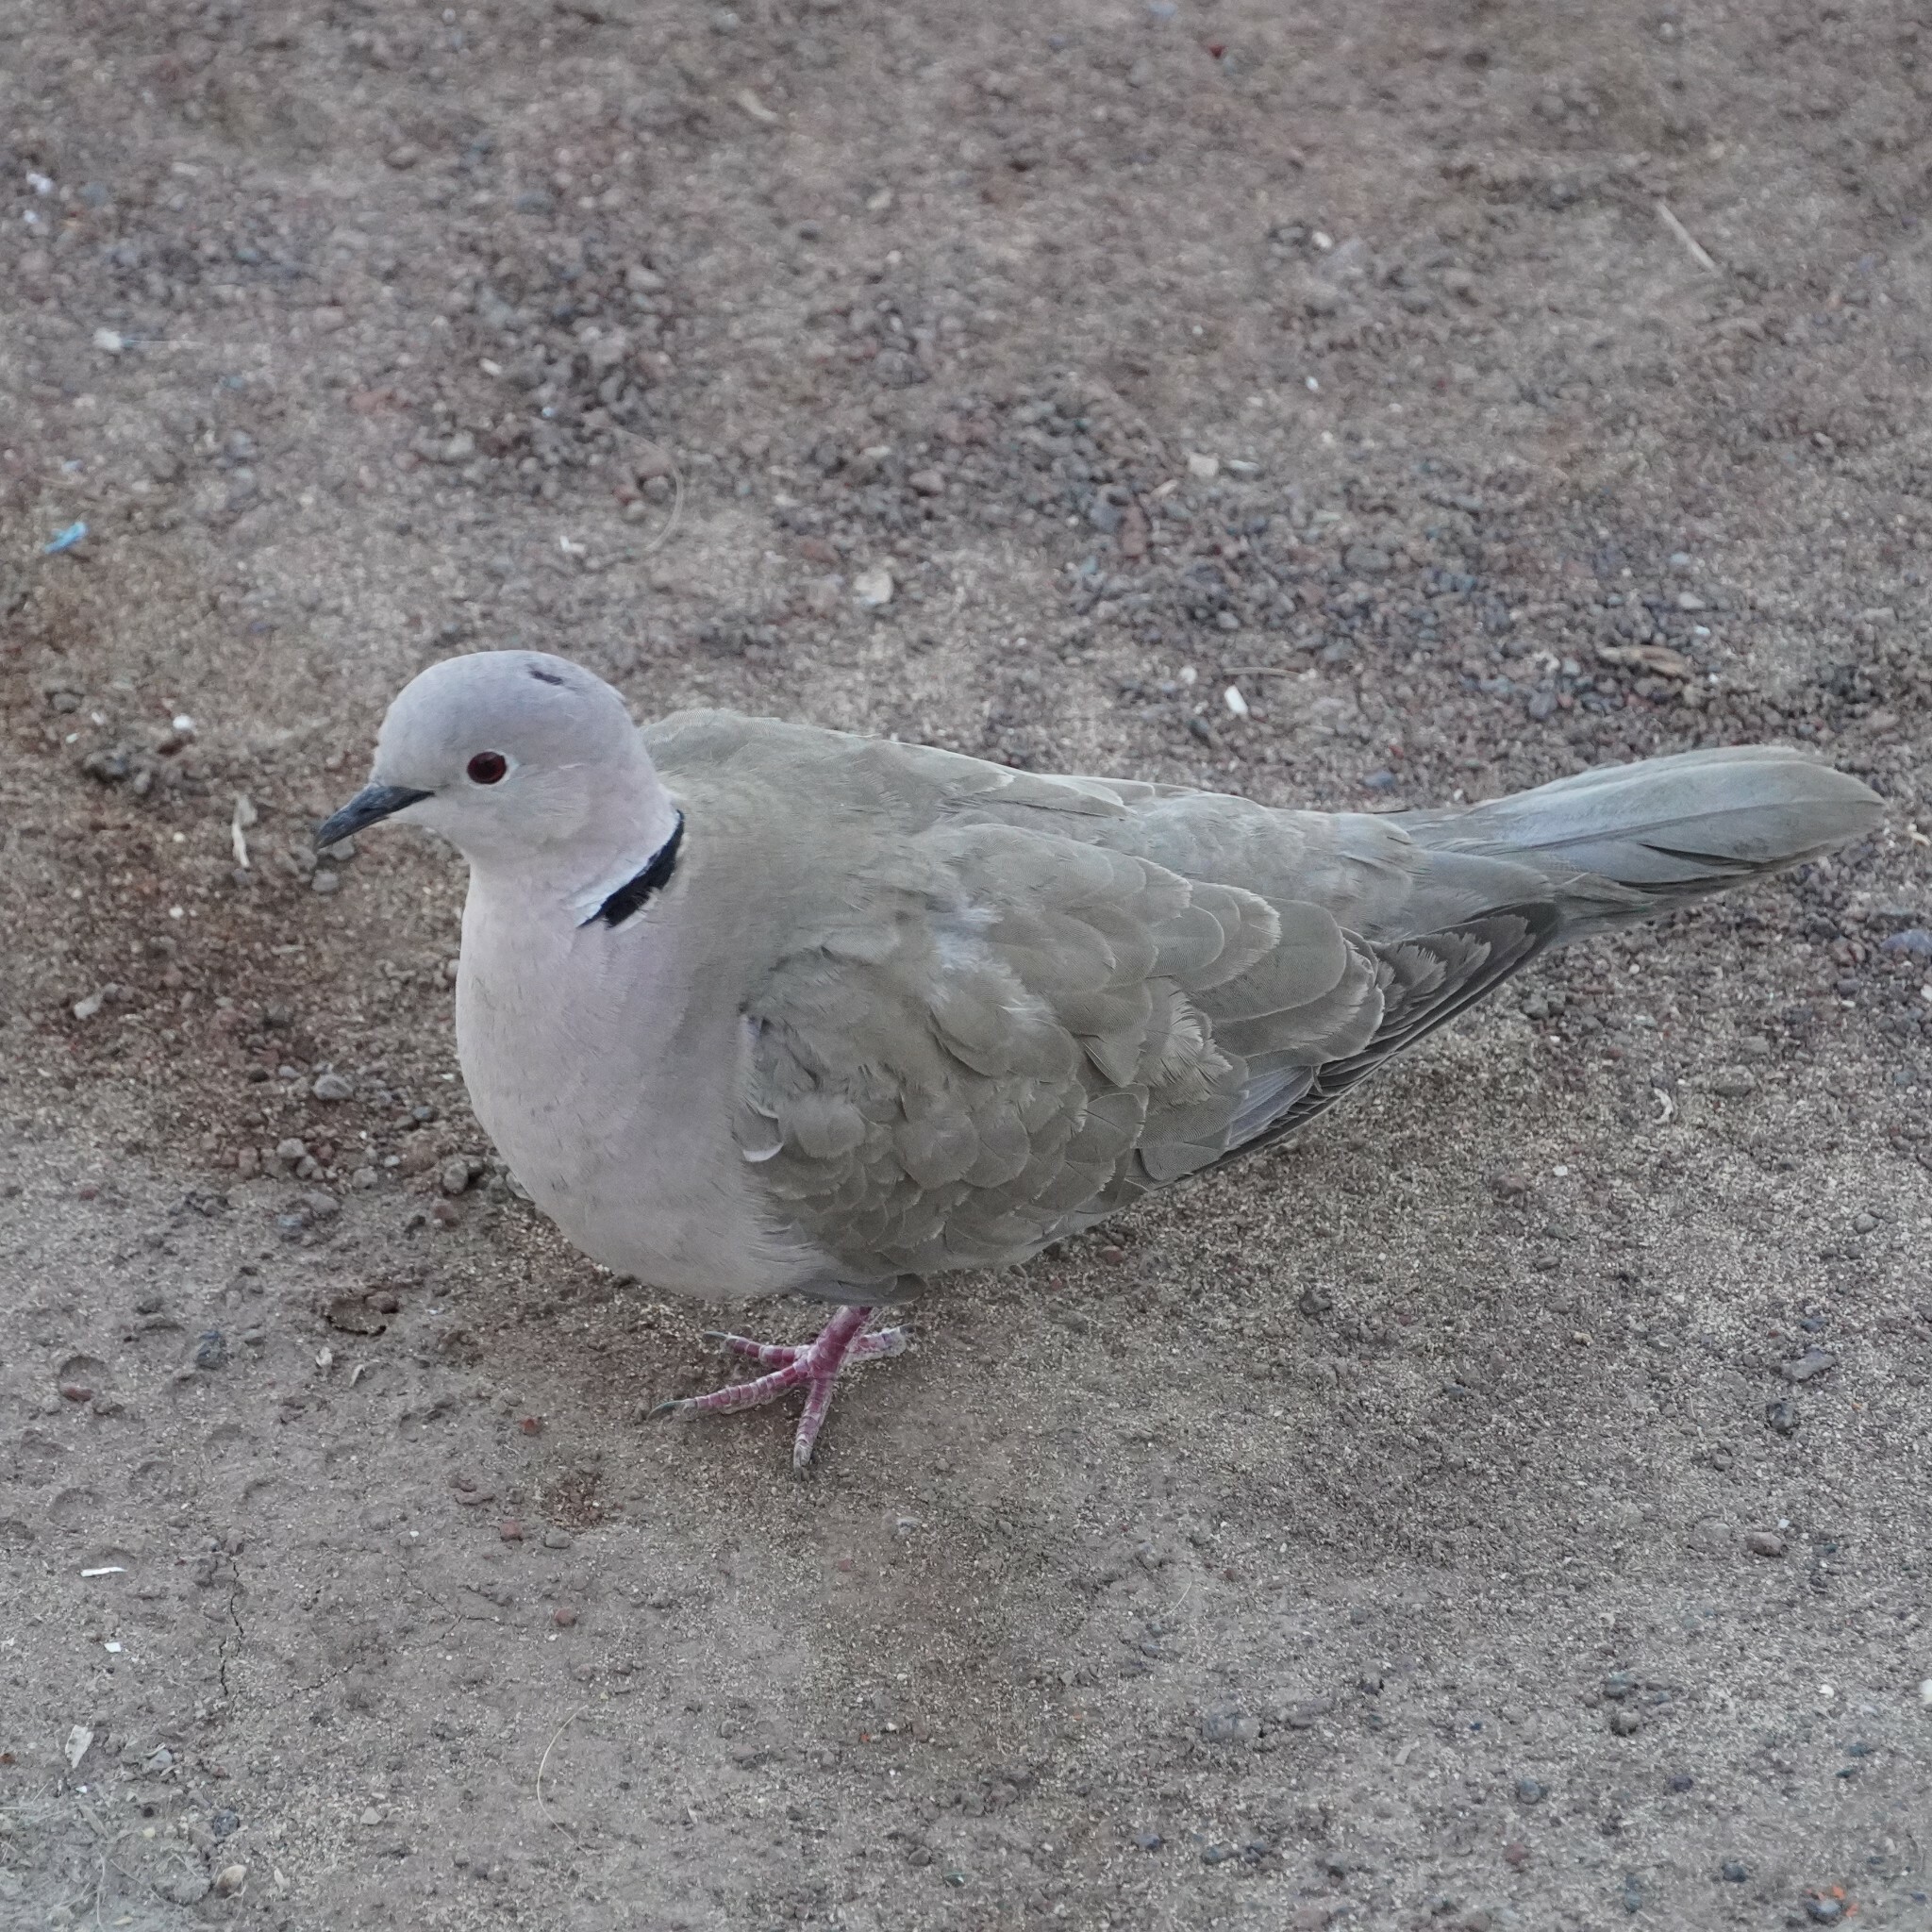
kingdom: Animalia
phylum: Chordata
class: Aves
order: Columbiformes
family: Columbidae
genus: Streptopelia
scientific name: Streptopelia decaocto
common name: Eurasian collared dove
